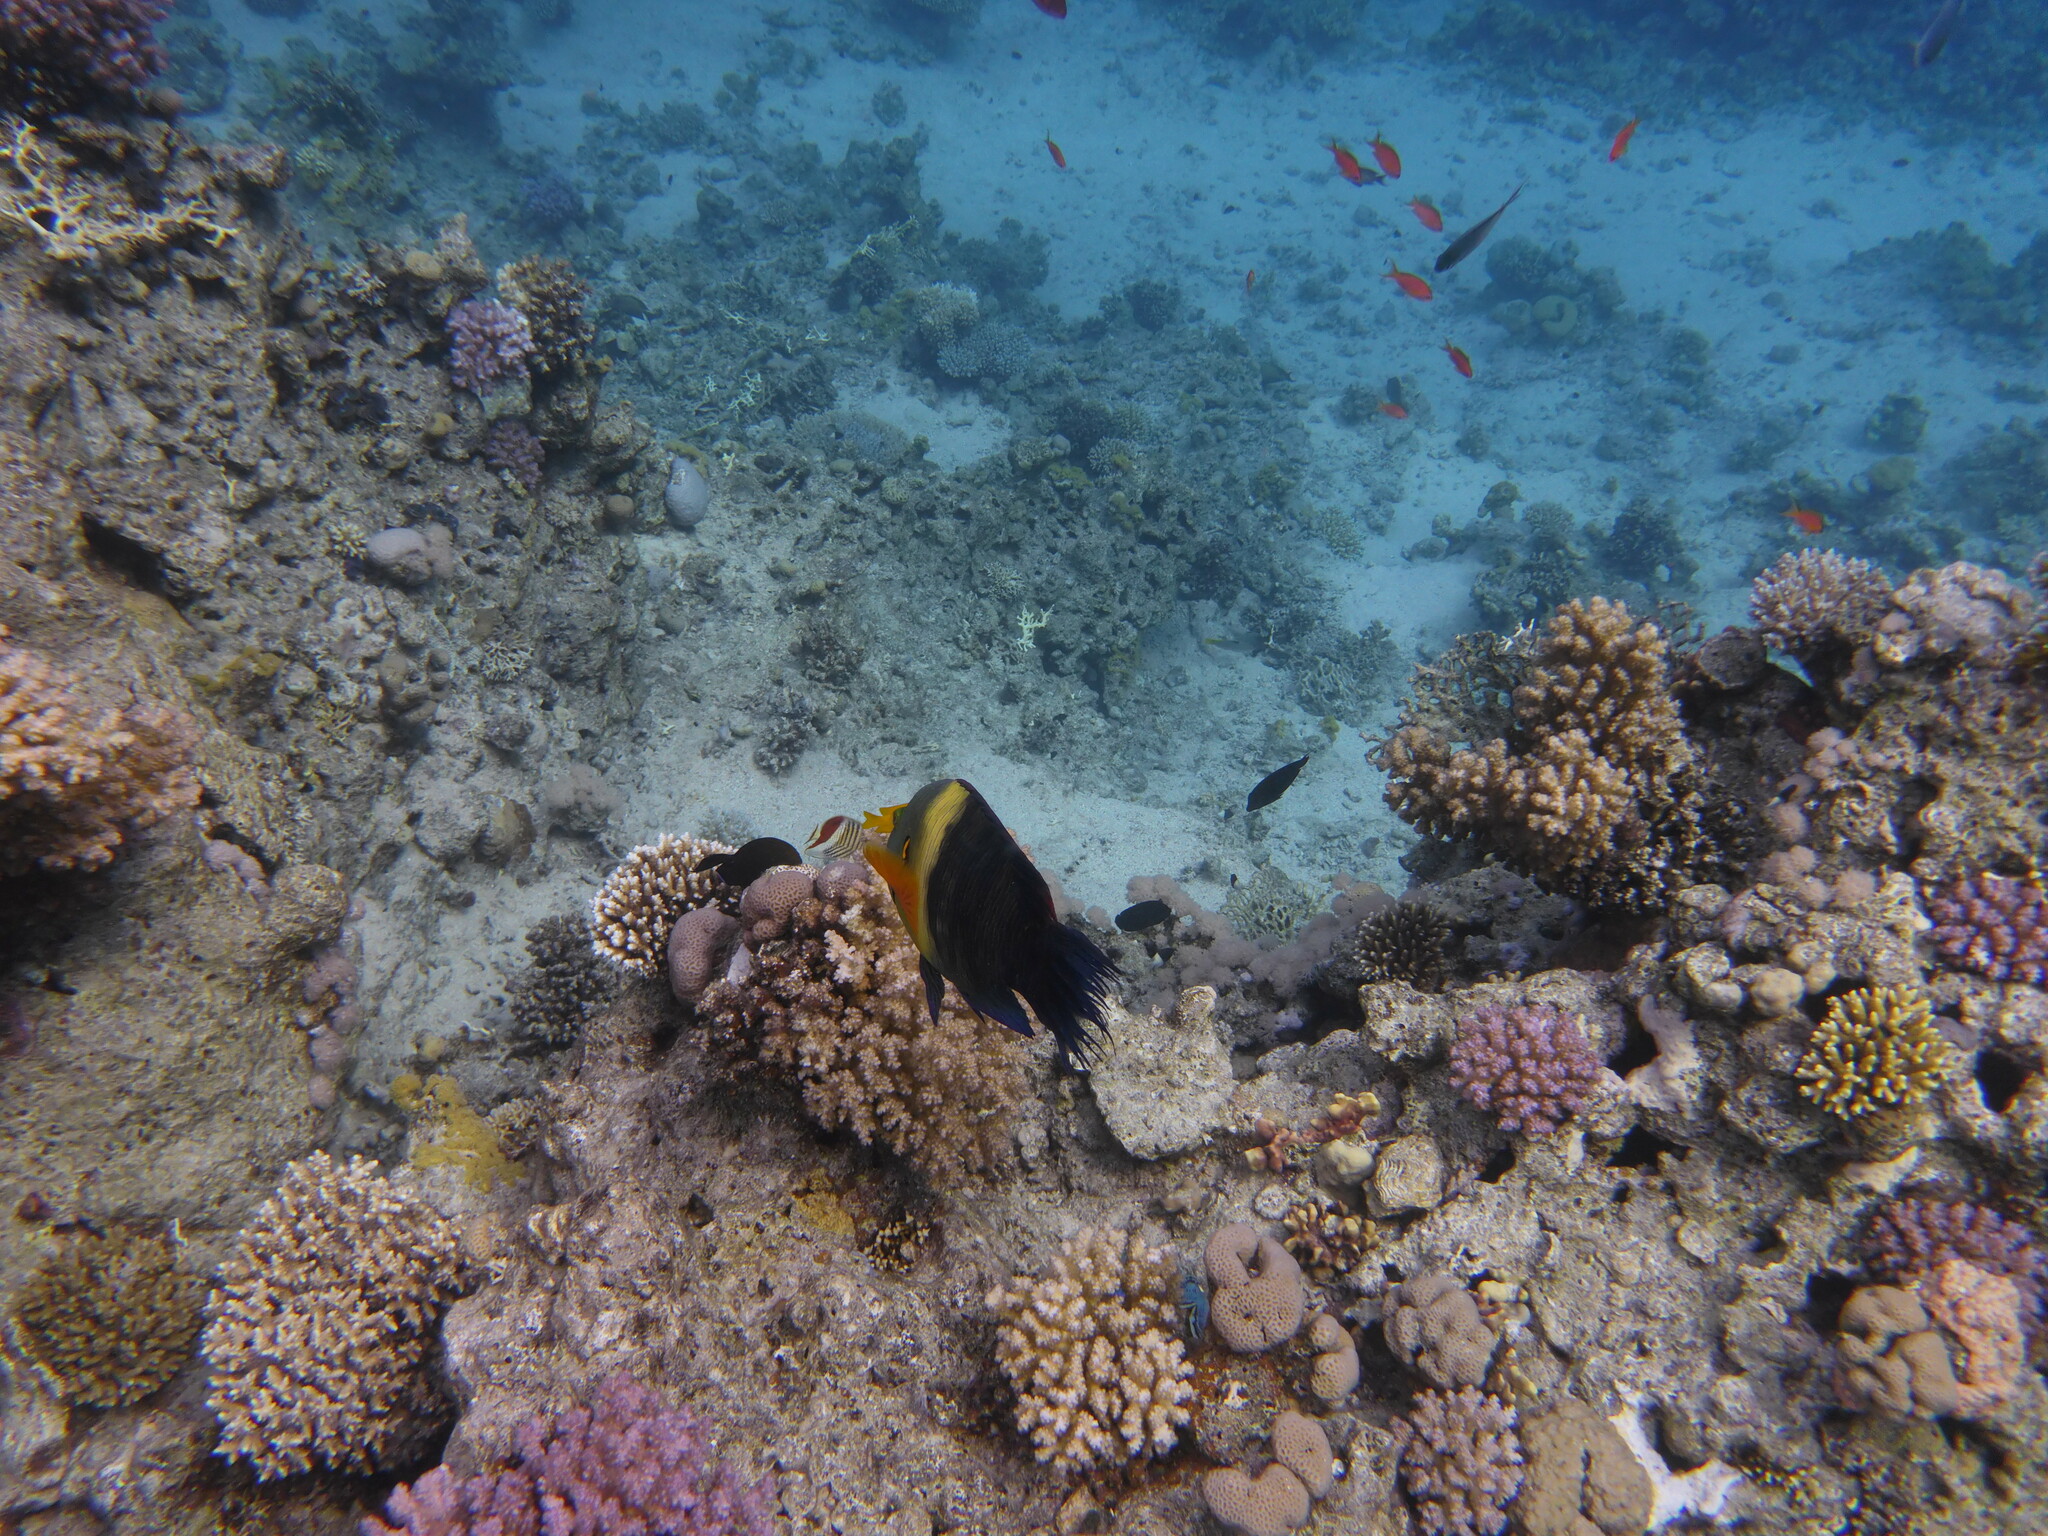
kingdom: Animalia
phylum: Chordata
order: Perciformes
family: Labridae
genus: Cheilinus
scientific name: Cheilinus lunulatus
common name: Broomtail wrasse
